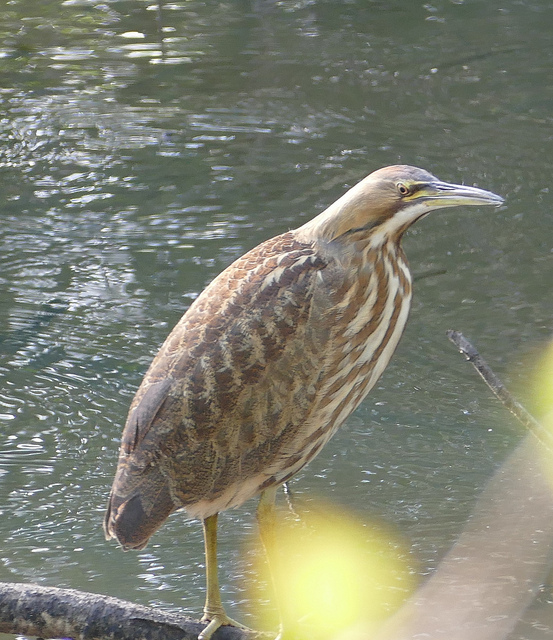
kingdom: Animalia
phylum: Chordata
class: Aves
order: Pelecaniformes
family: Ardeidae
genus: Botaurus
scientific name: Botaurus lentiginosus
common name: American bittern
